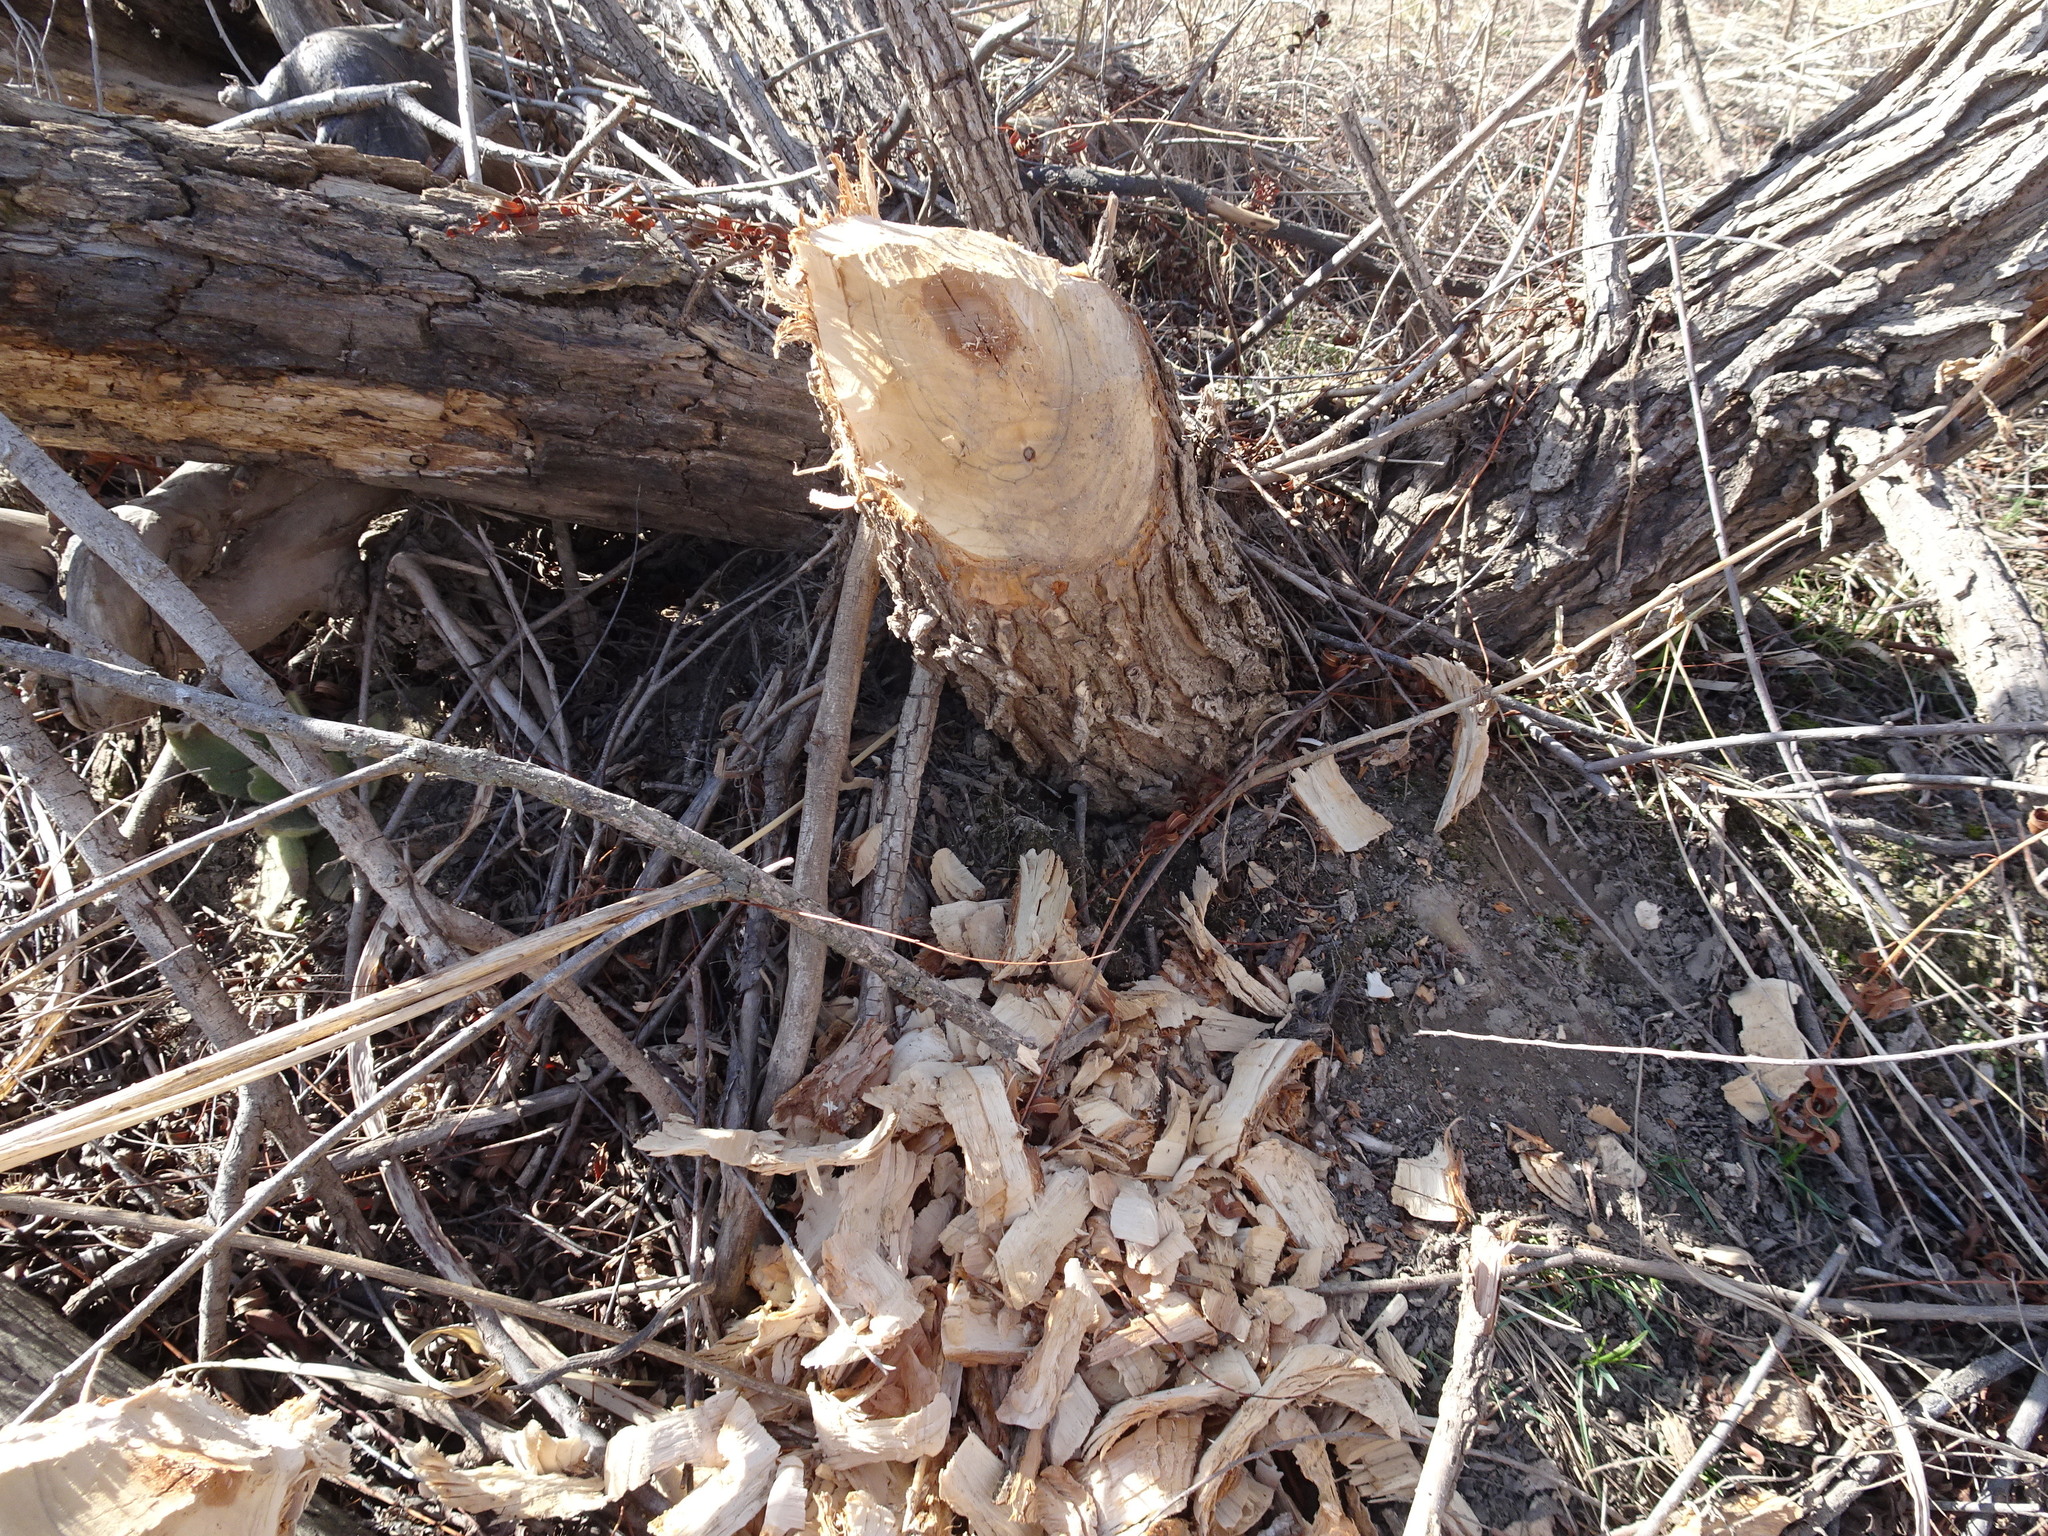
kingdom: Animalia
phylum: Chordata
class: Mammalia
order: Rodentia
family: Castoridae
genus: Castor
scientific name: Castor canadensis
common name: American beaver
